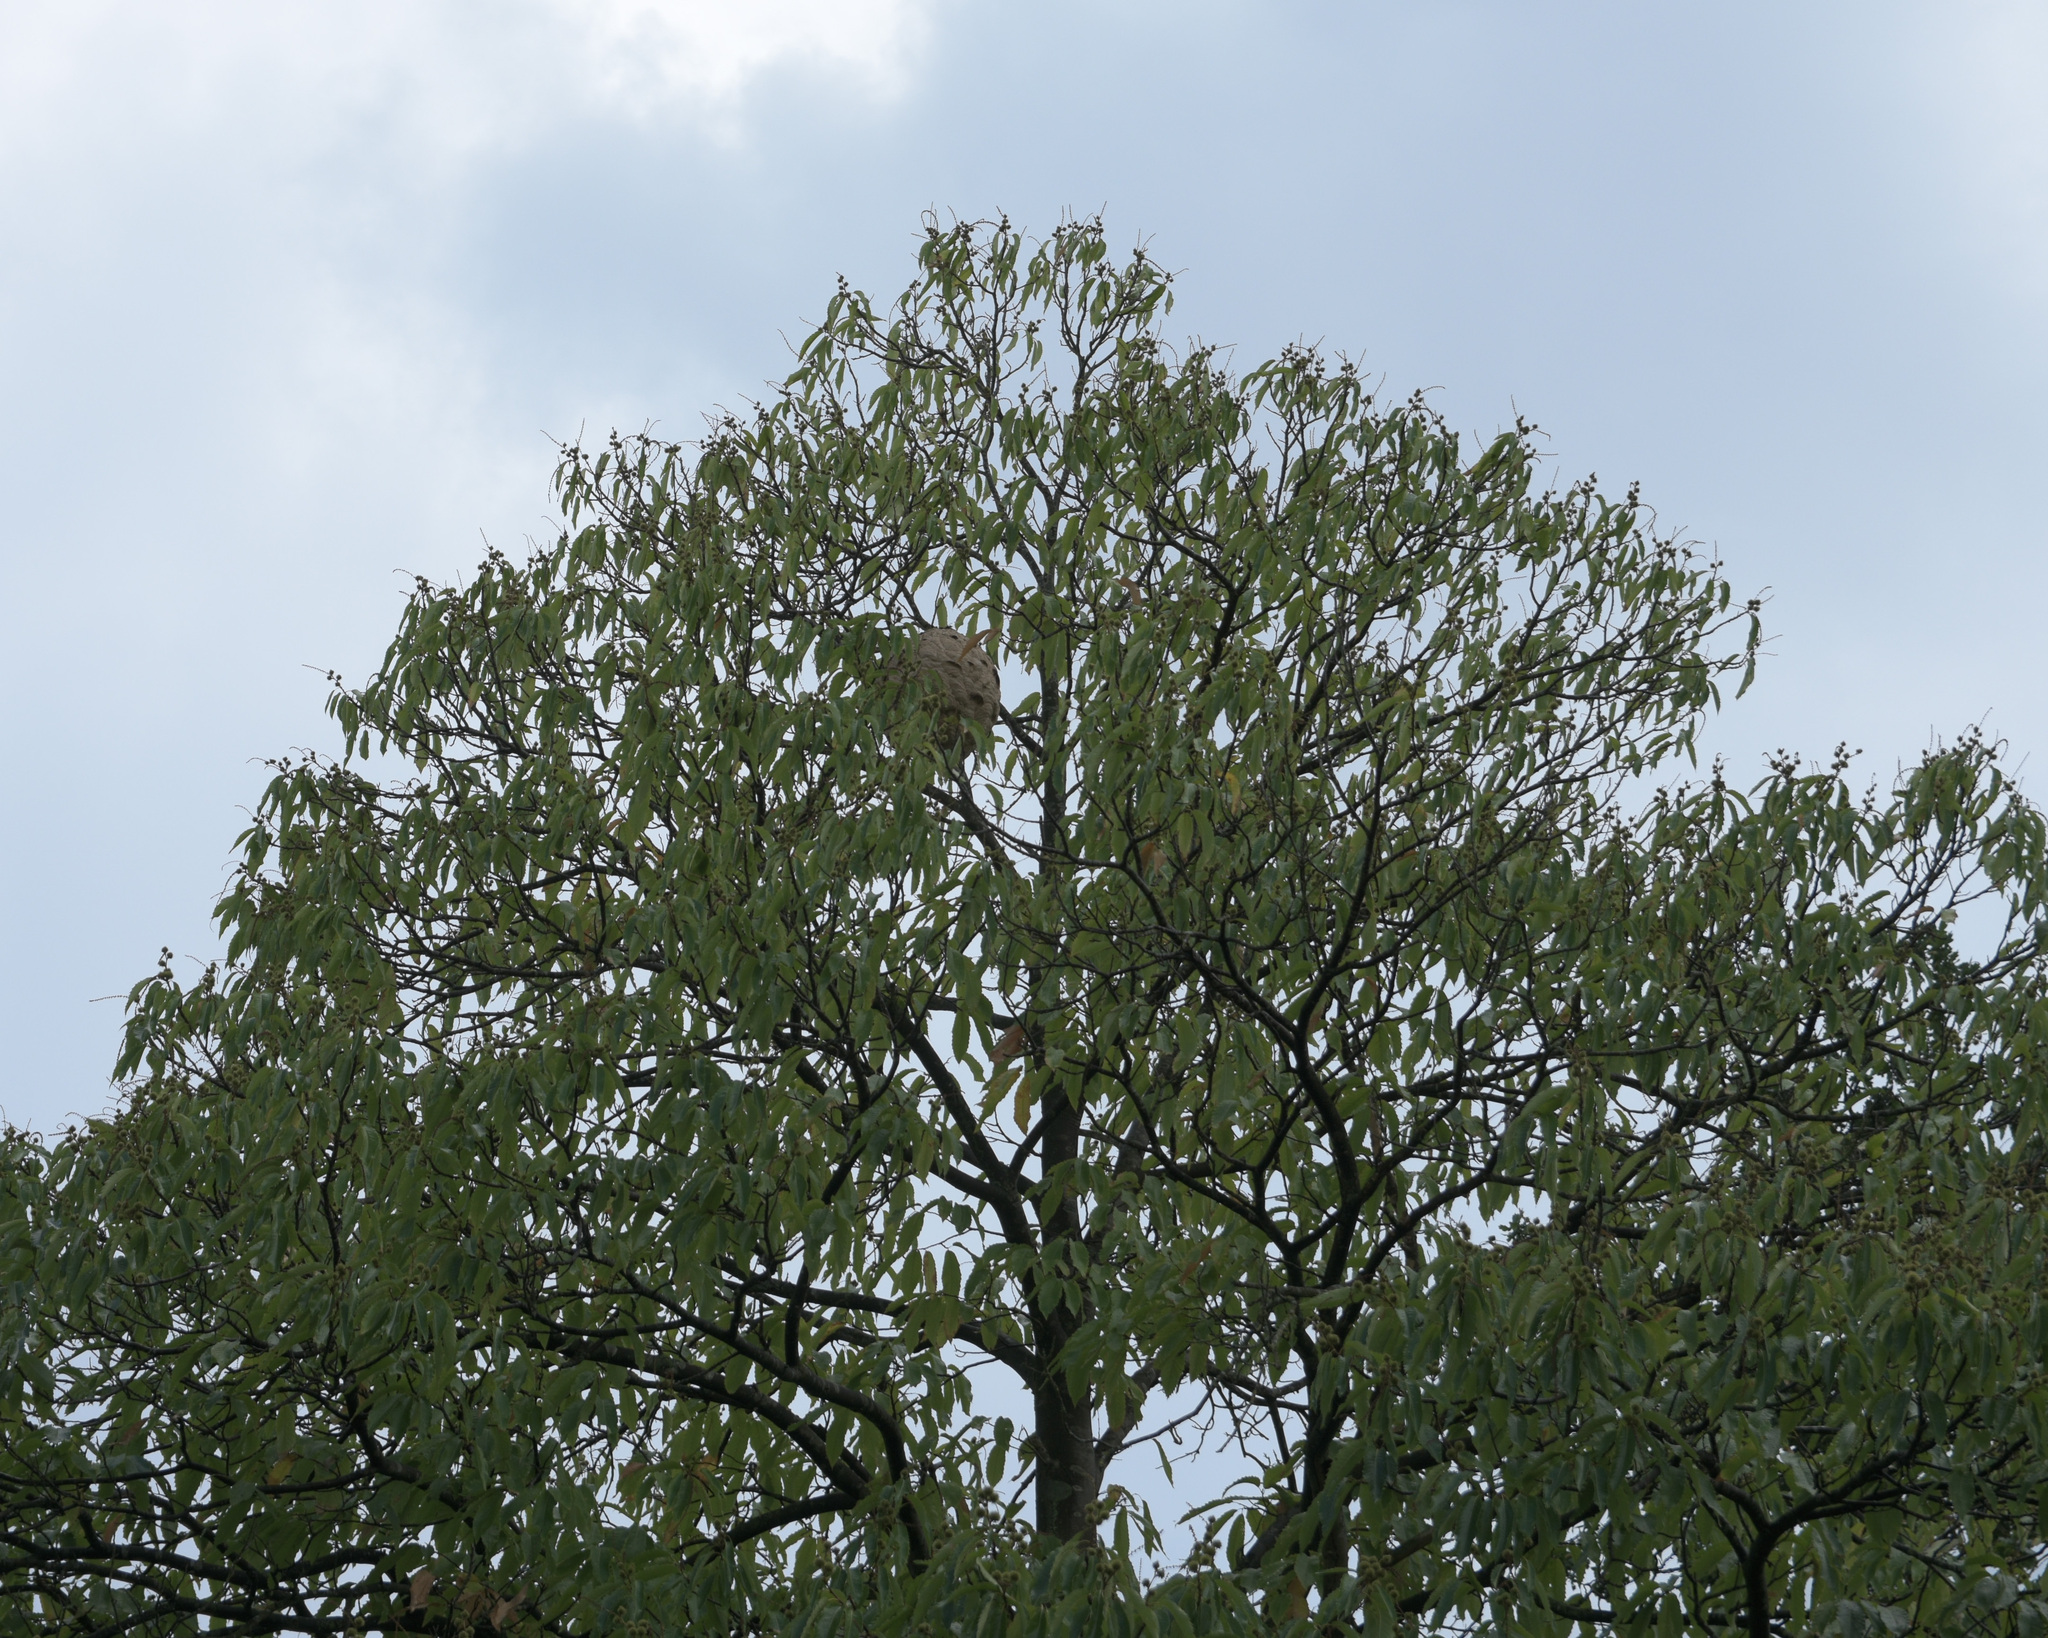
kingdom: Animalia
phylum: Arthropoda
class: Insecta
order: Hymenoptera
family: Vespidae
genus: Vespa
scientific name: Vespa velutina
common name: Asian hornet
